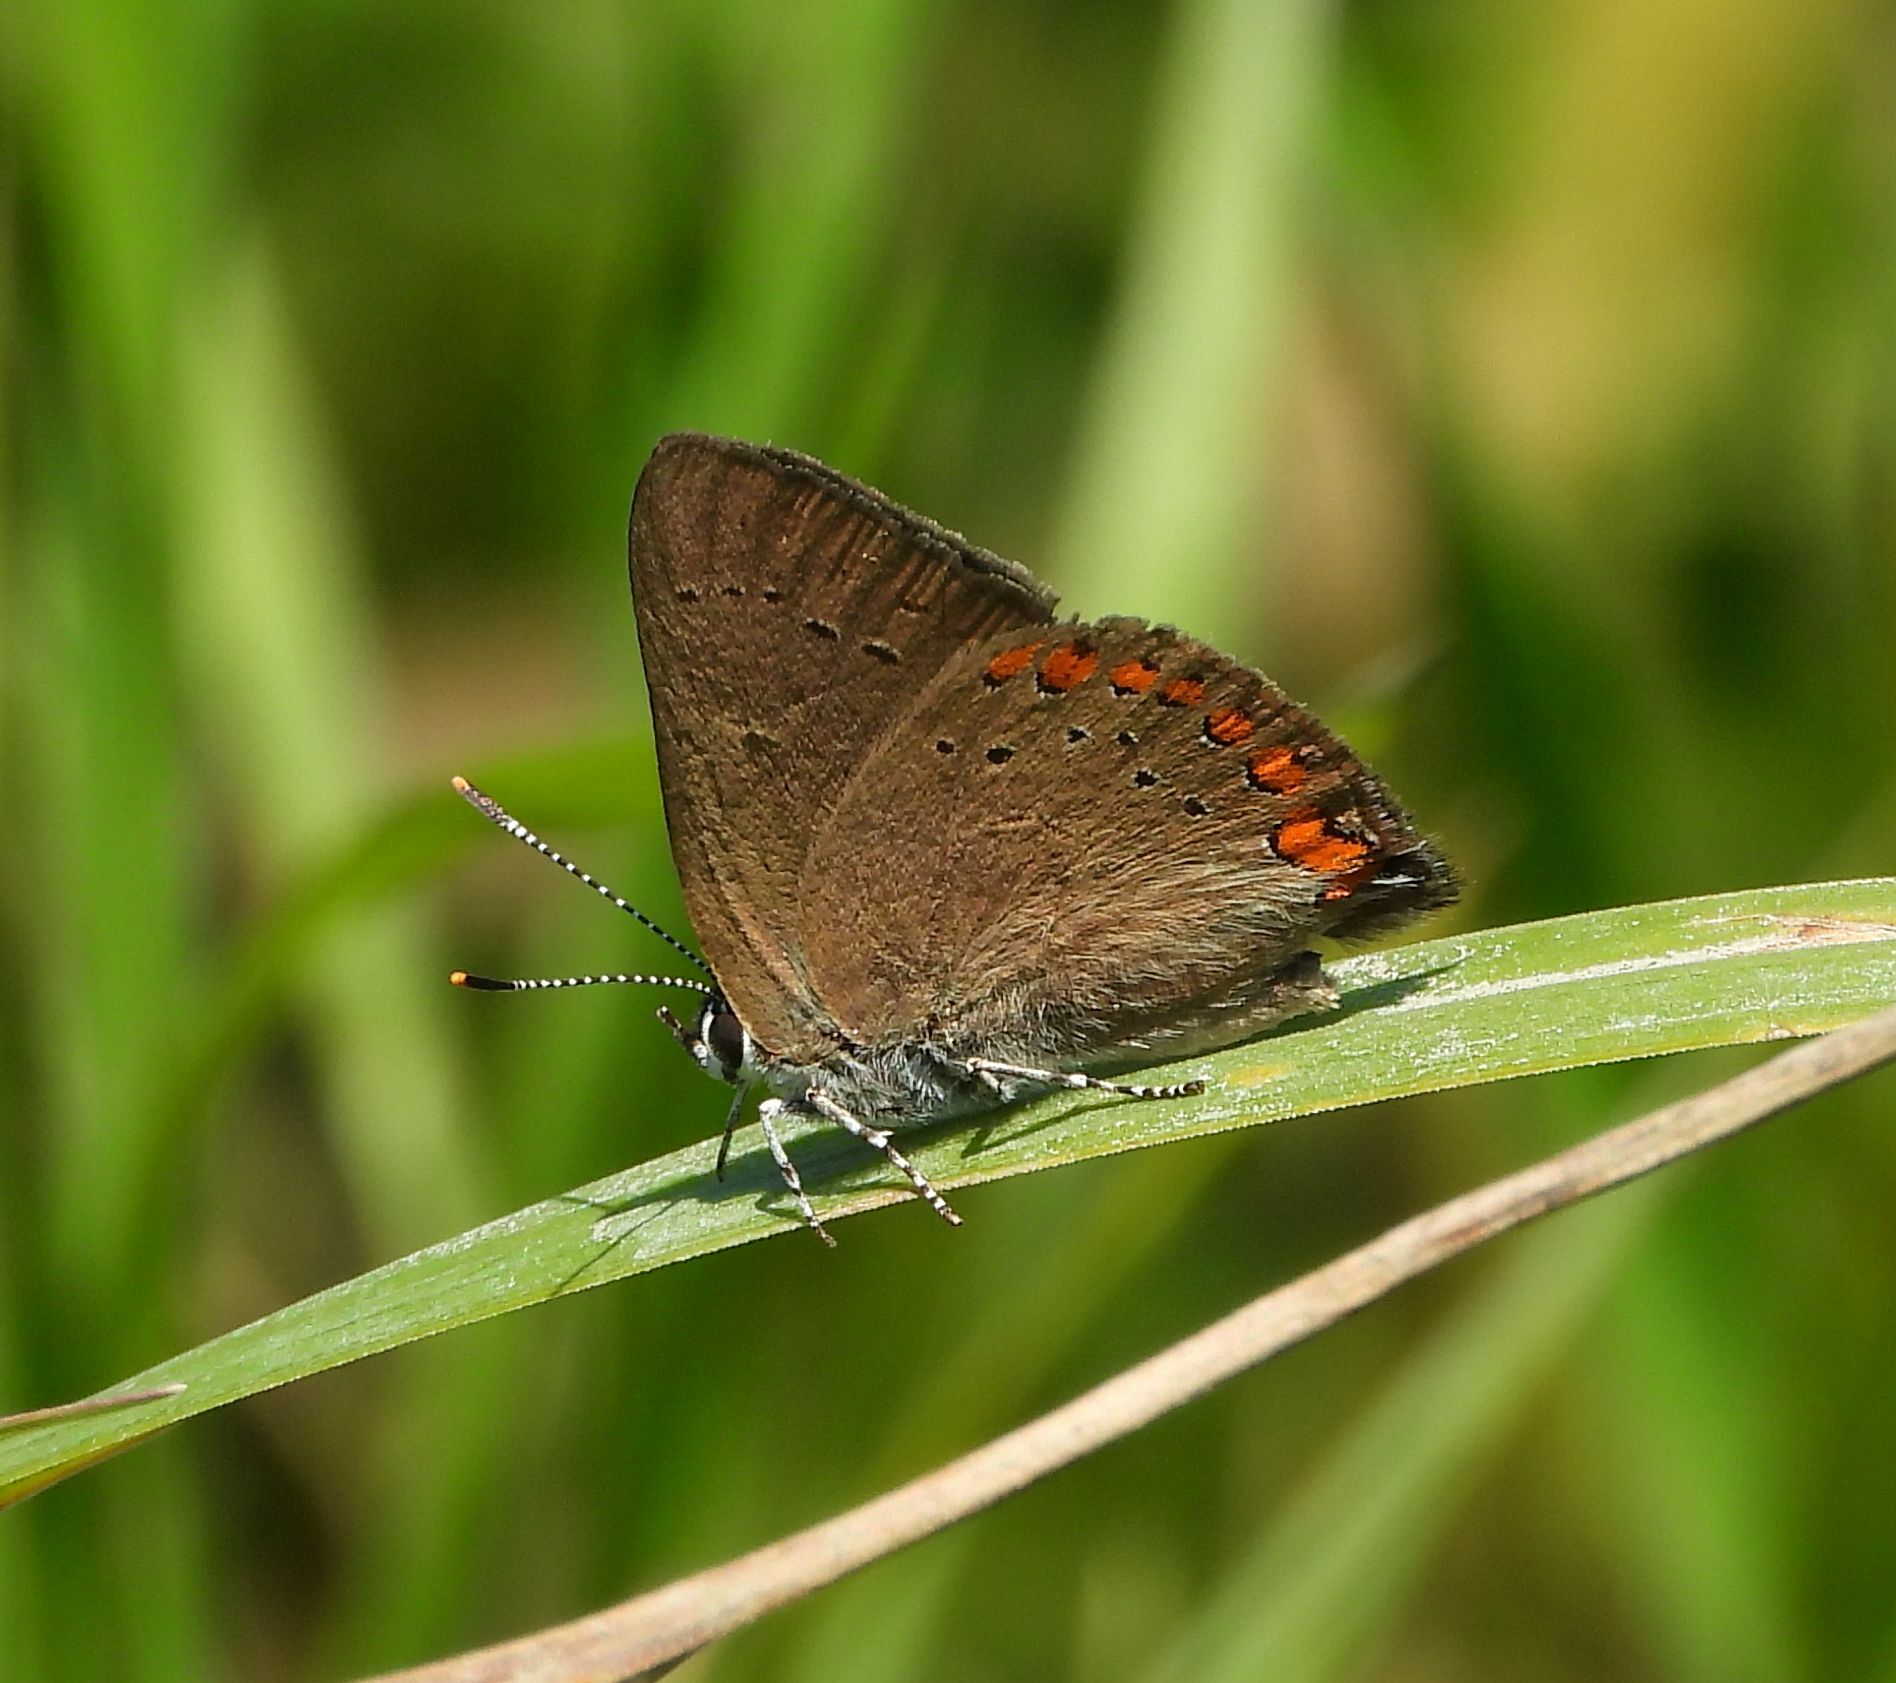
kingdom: Animalia
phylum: Arthropoda
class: Insecta
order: Lepidoptera
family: Lycaenidae
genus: Harkenclenus
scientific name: Harkenclenus titus
